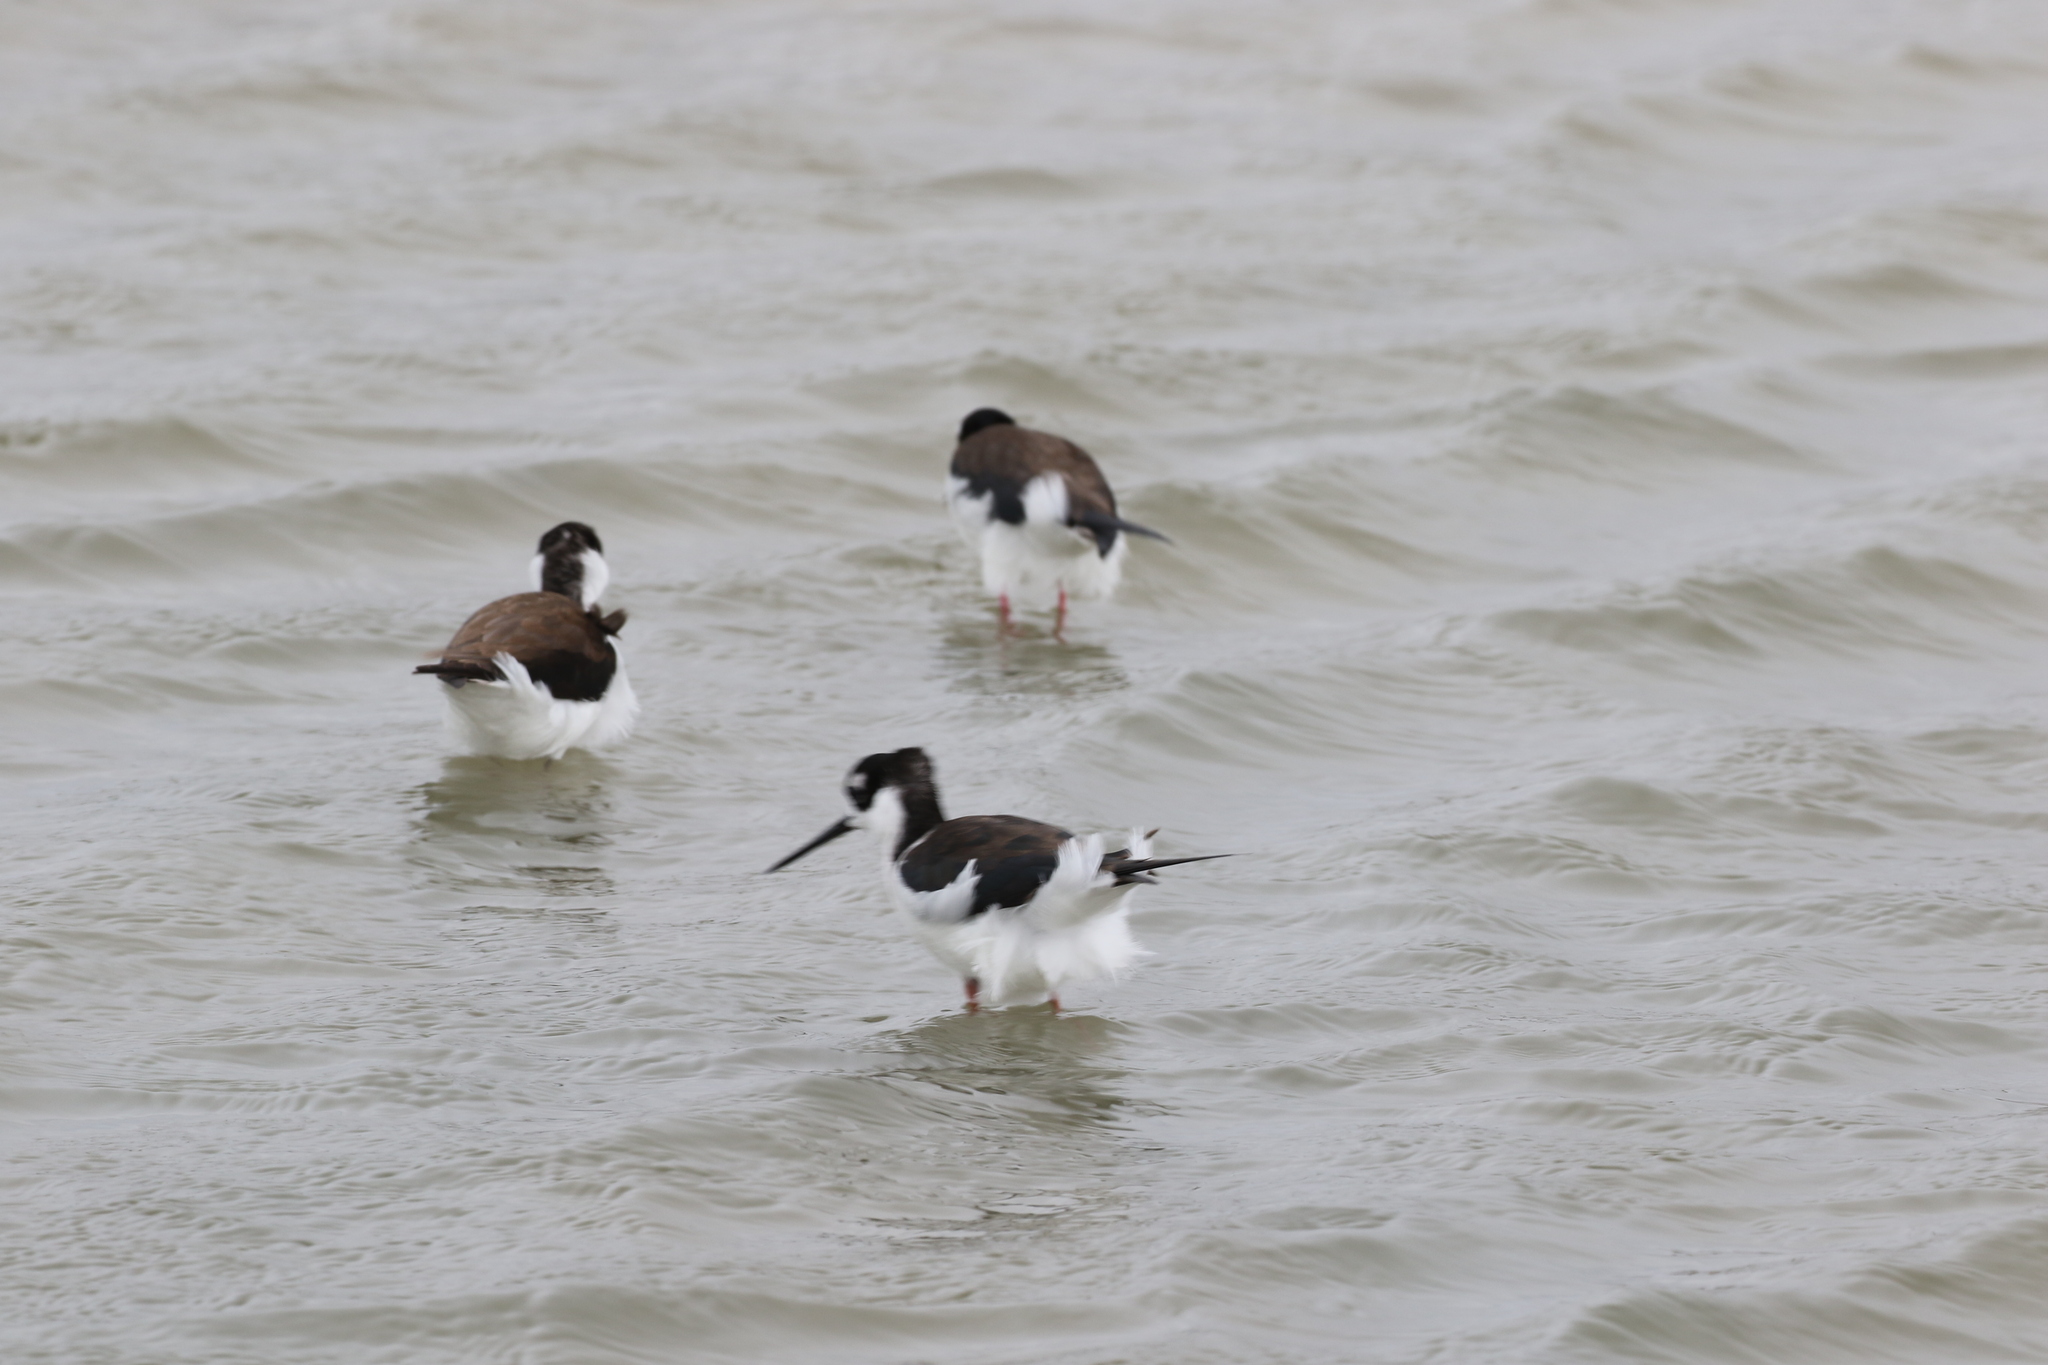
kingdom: Animalia
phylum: Chordata
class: Aves
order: Charadriiformes
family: Recurvirostridae
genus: Himantopus
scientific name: Himantopus mexicanus
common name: Black-necked stilt
